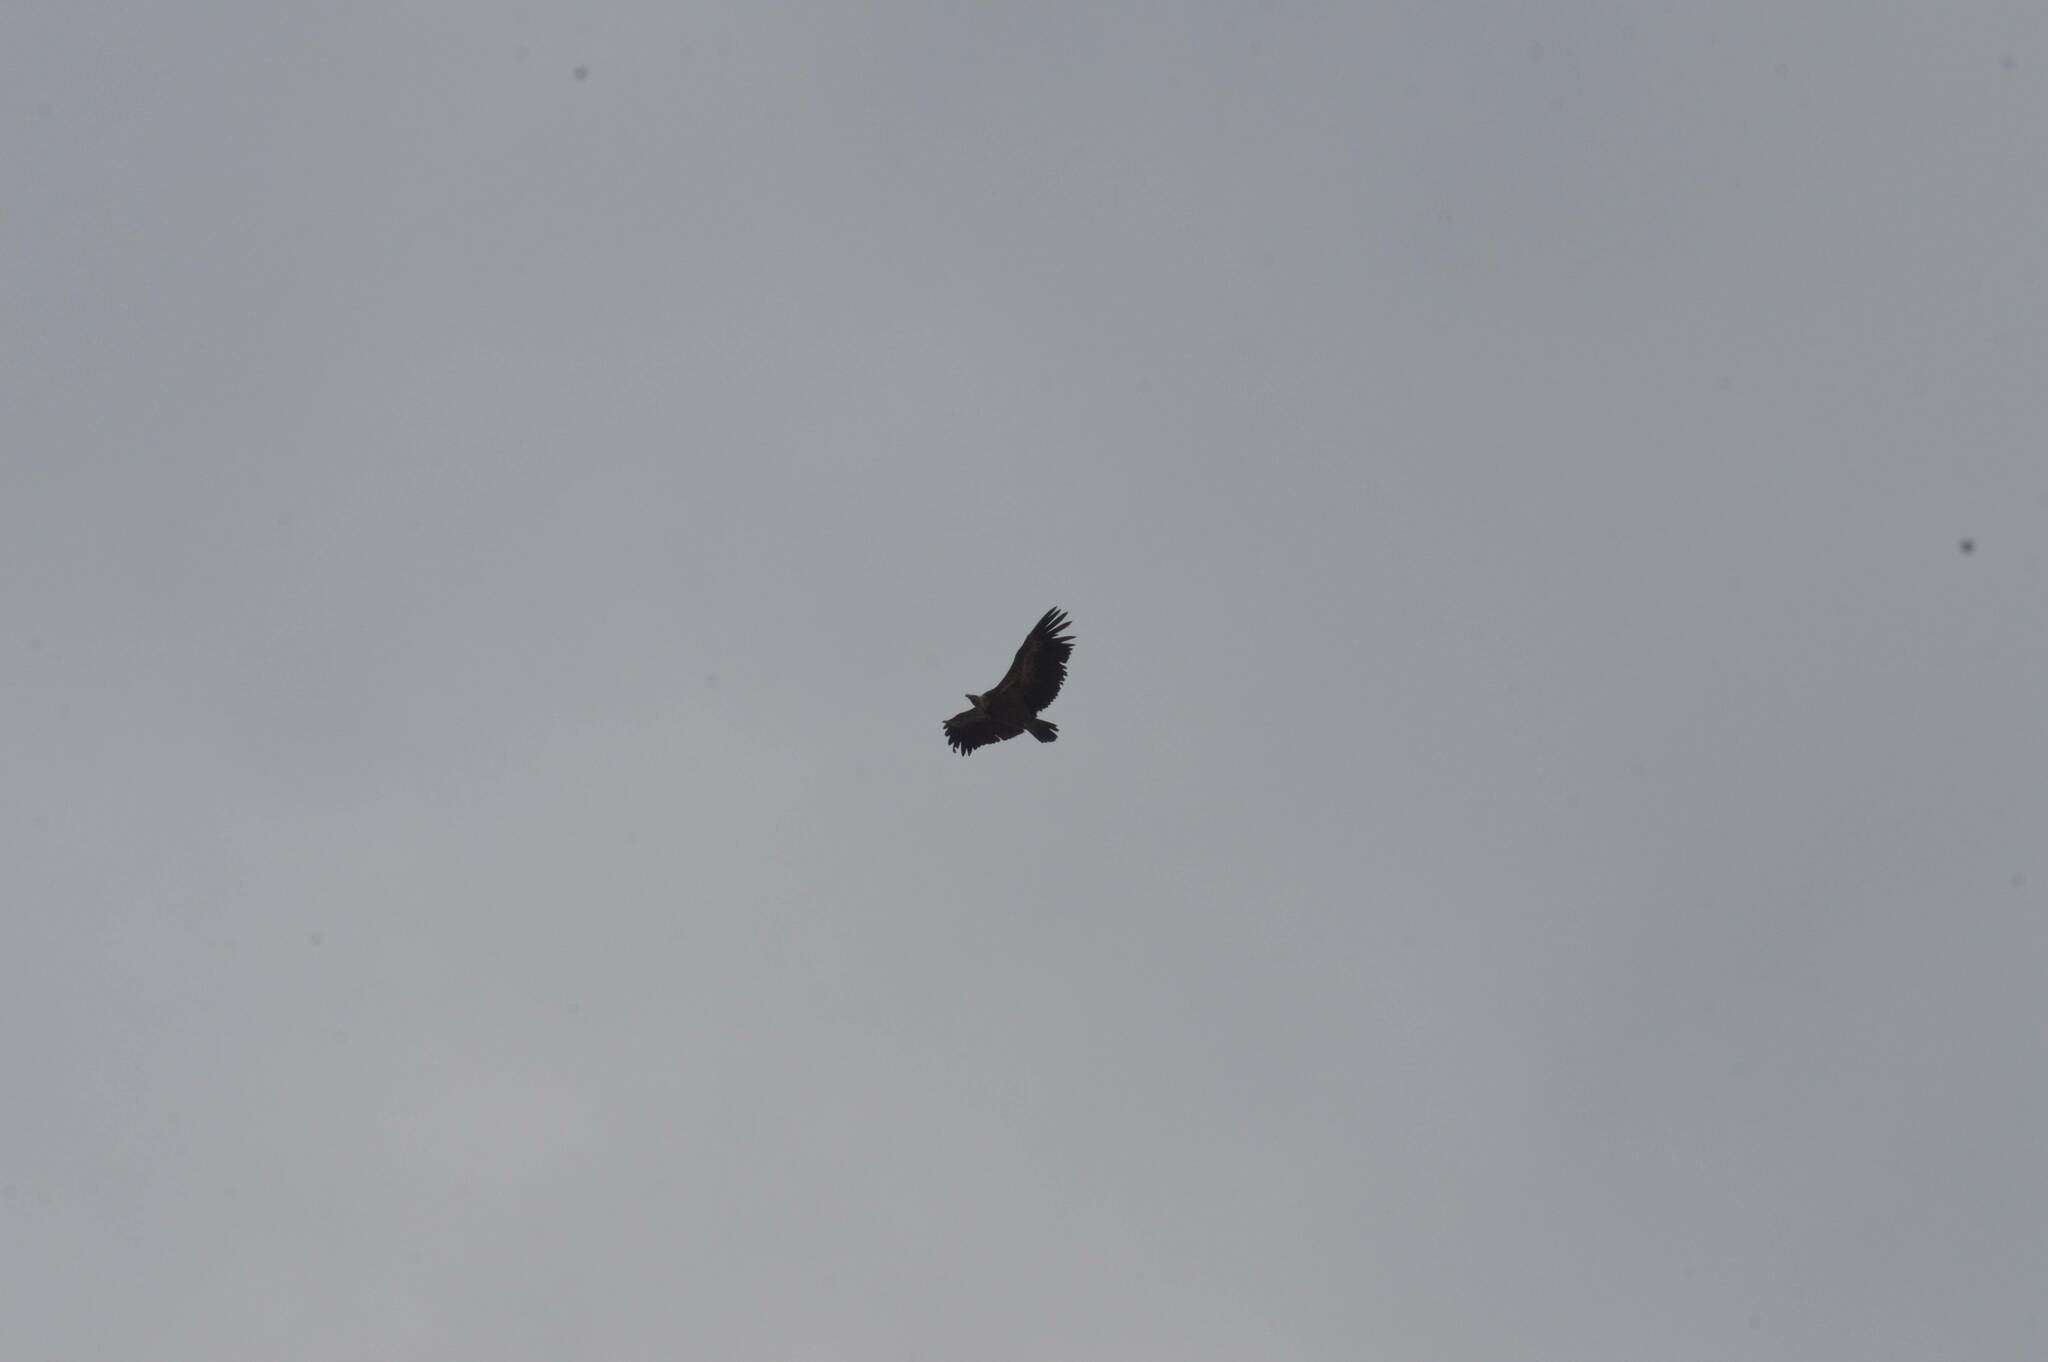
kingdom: Animalia
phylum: Chordata
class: Aves
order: Accipitriformes
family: Accipitridae
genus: Gyps
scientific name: Gyps fulvus
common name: Griffon vulture
